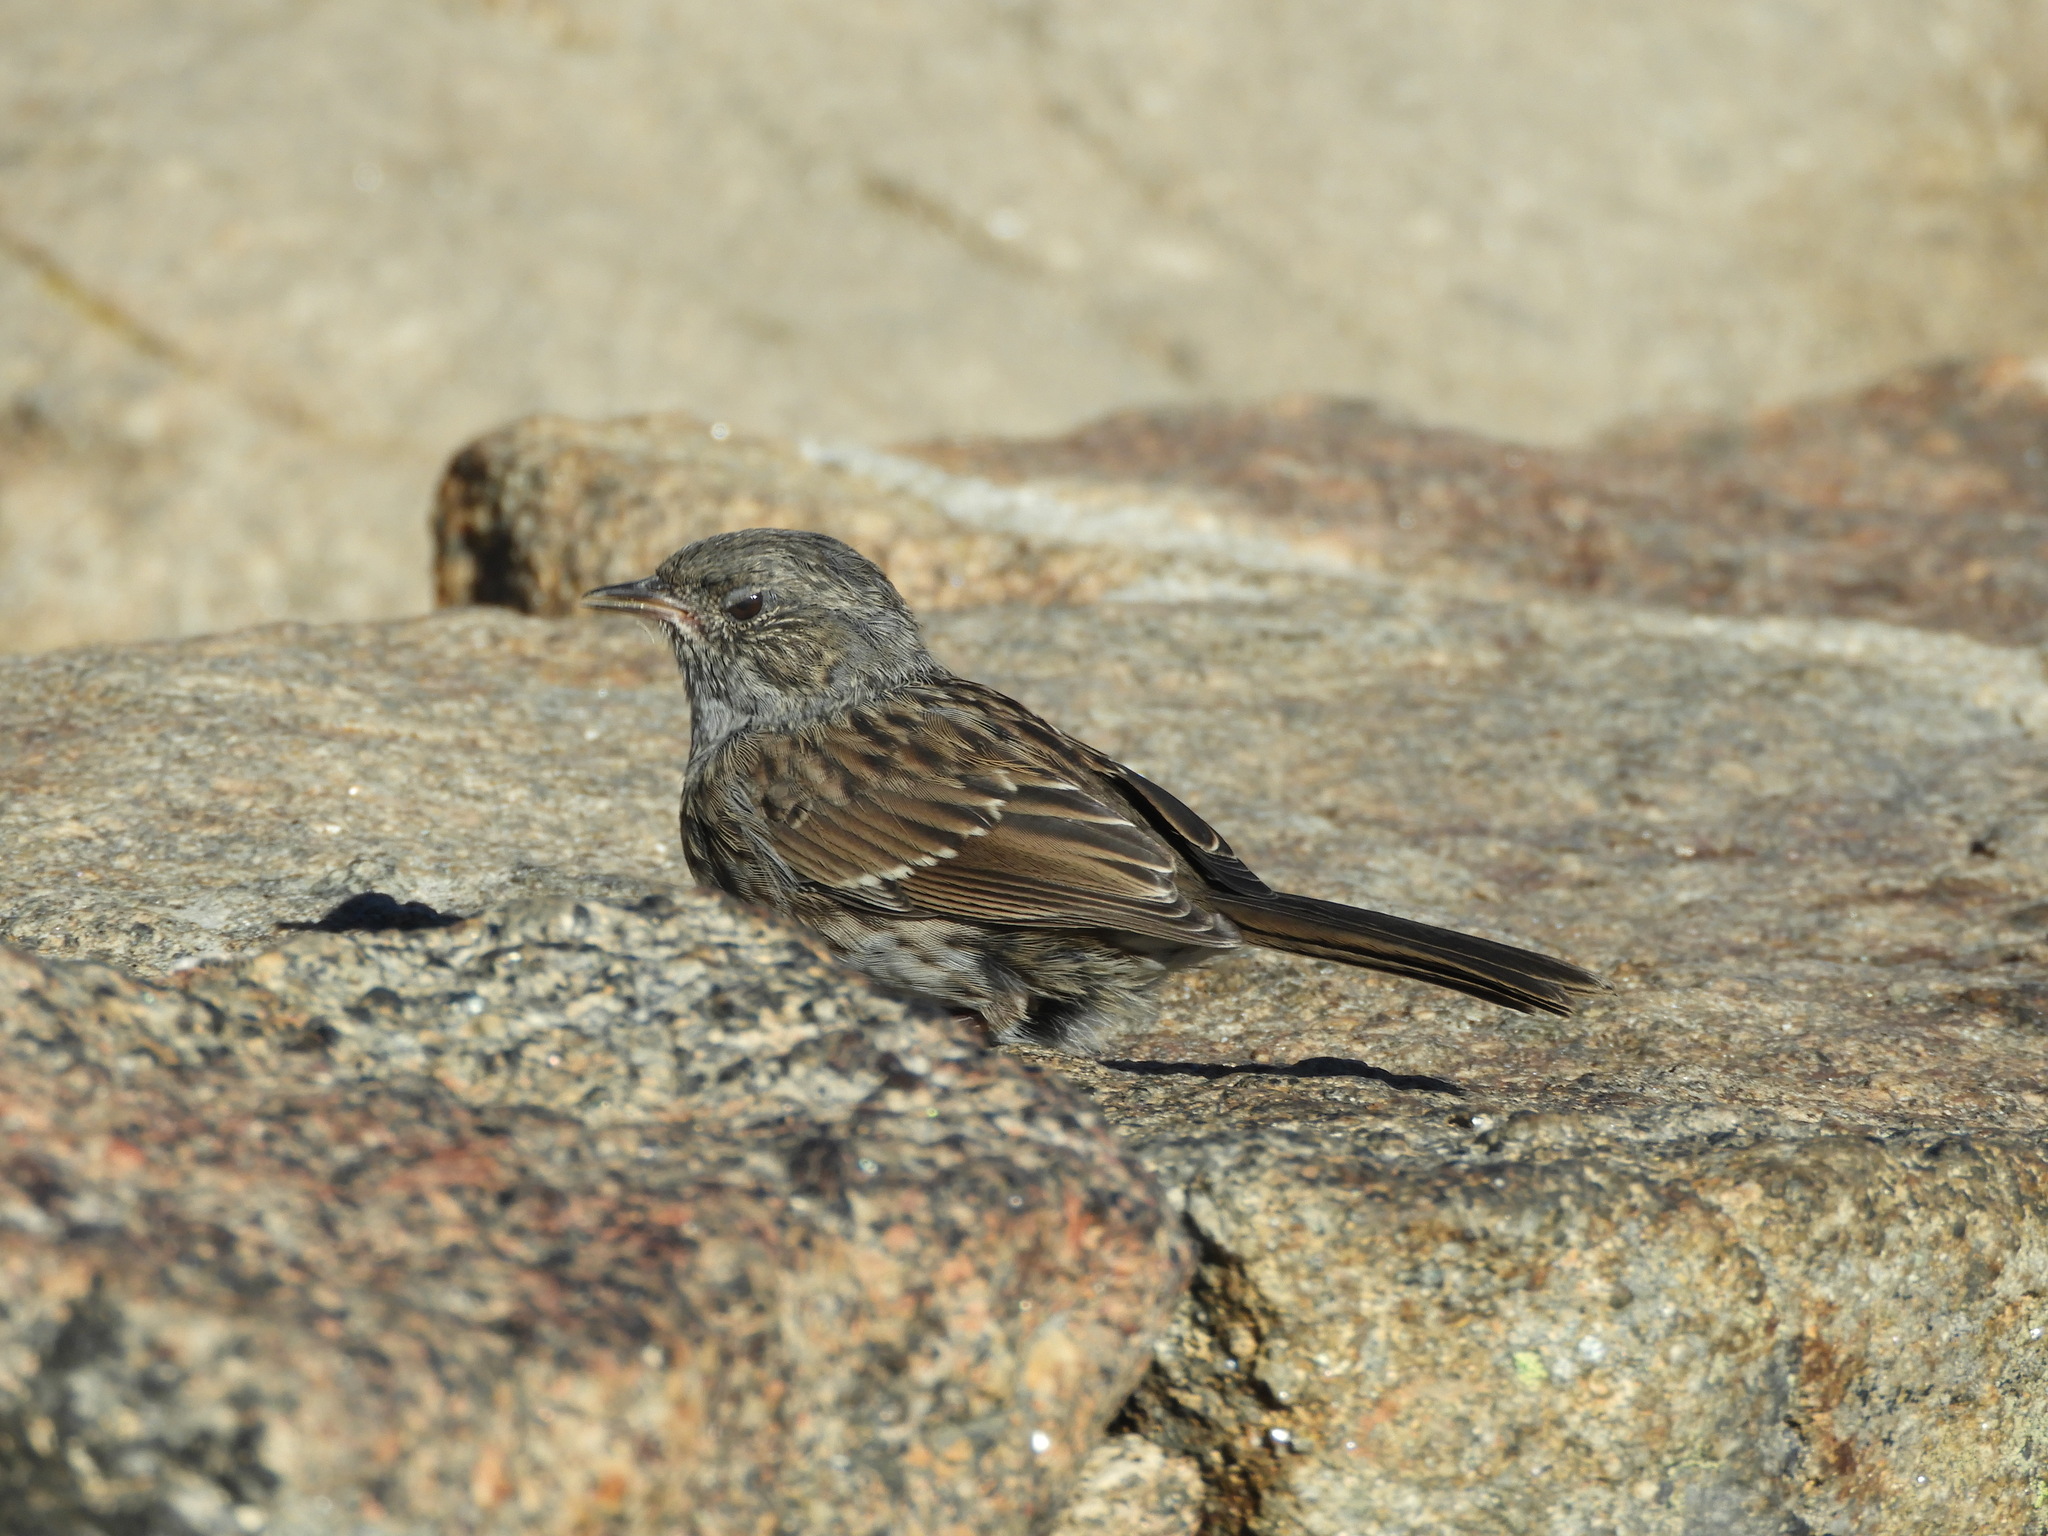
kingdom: Animalia
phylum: Chordata
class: Aves
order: Passeriformes
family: Prunellidae
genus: Prunella
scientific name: Prunella modularis
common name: Dunnock
